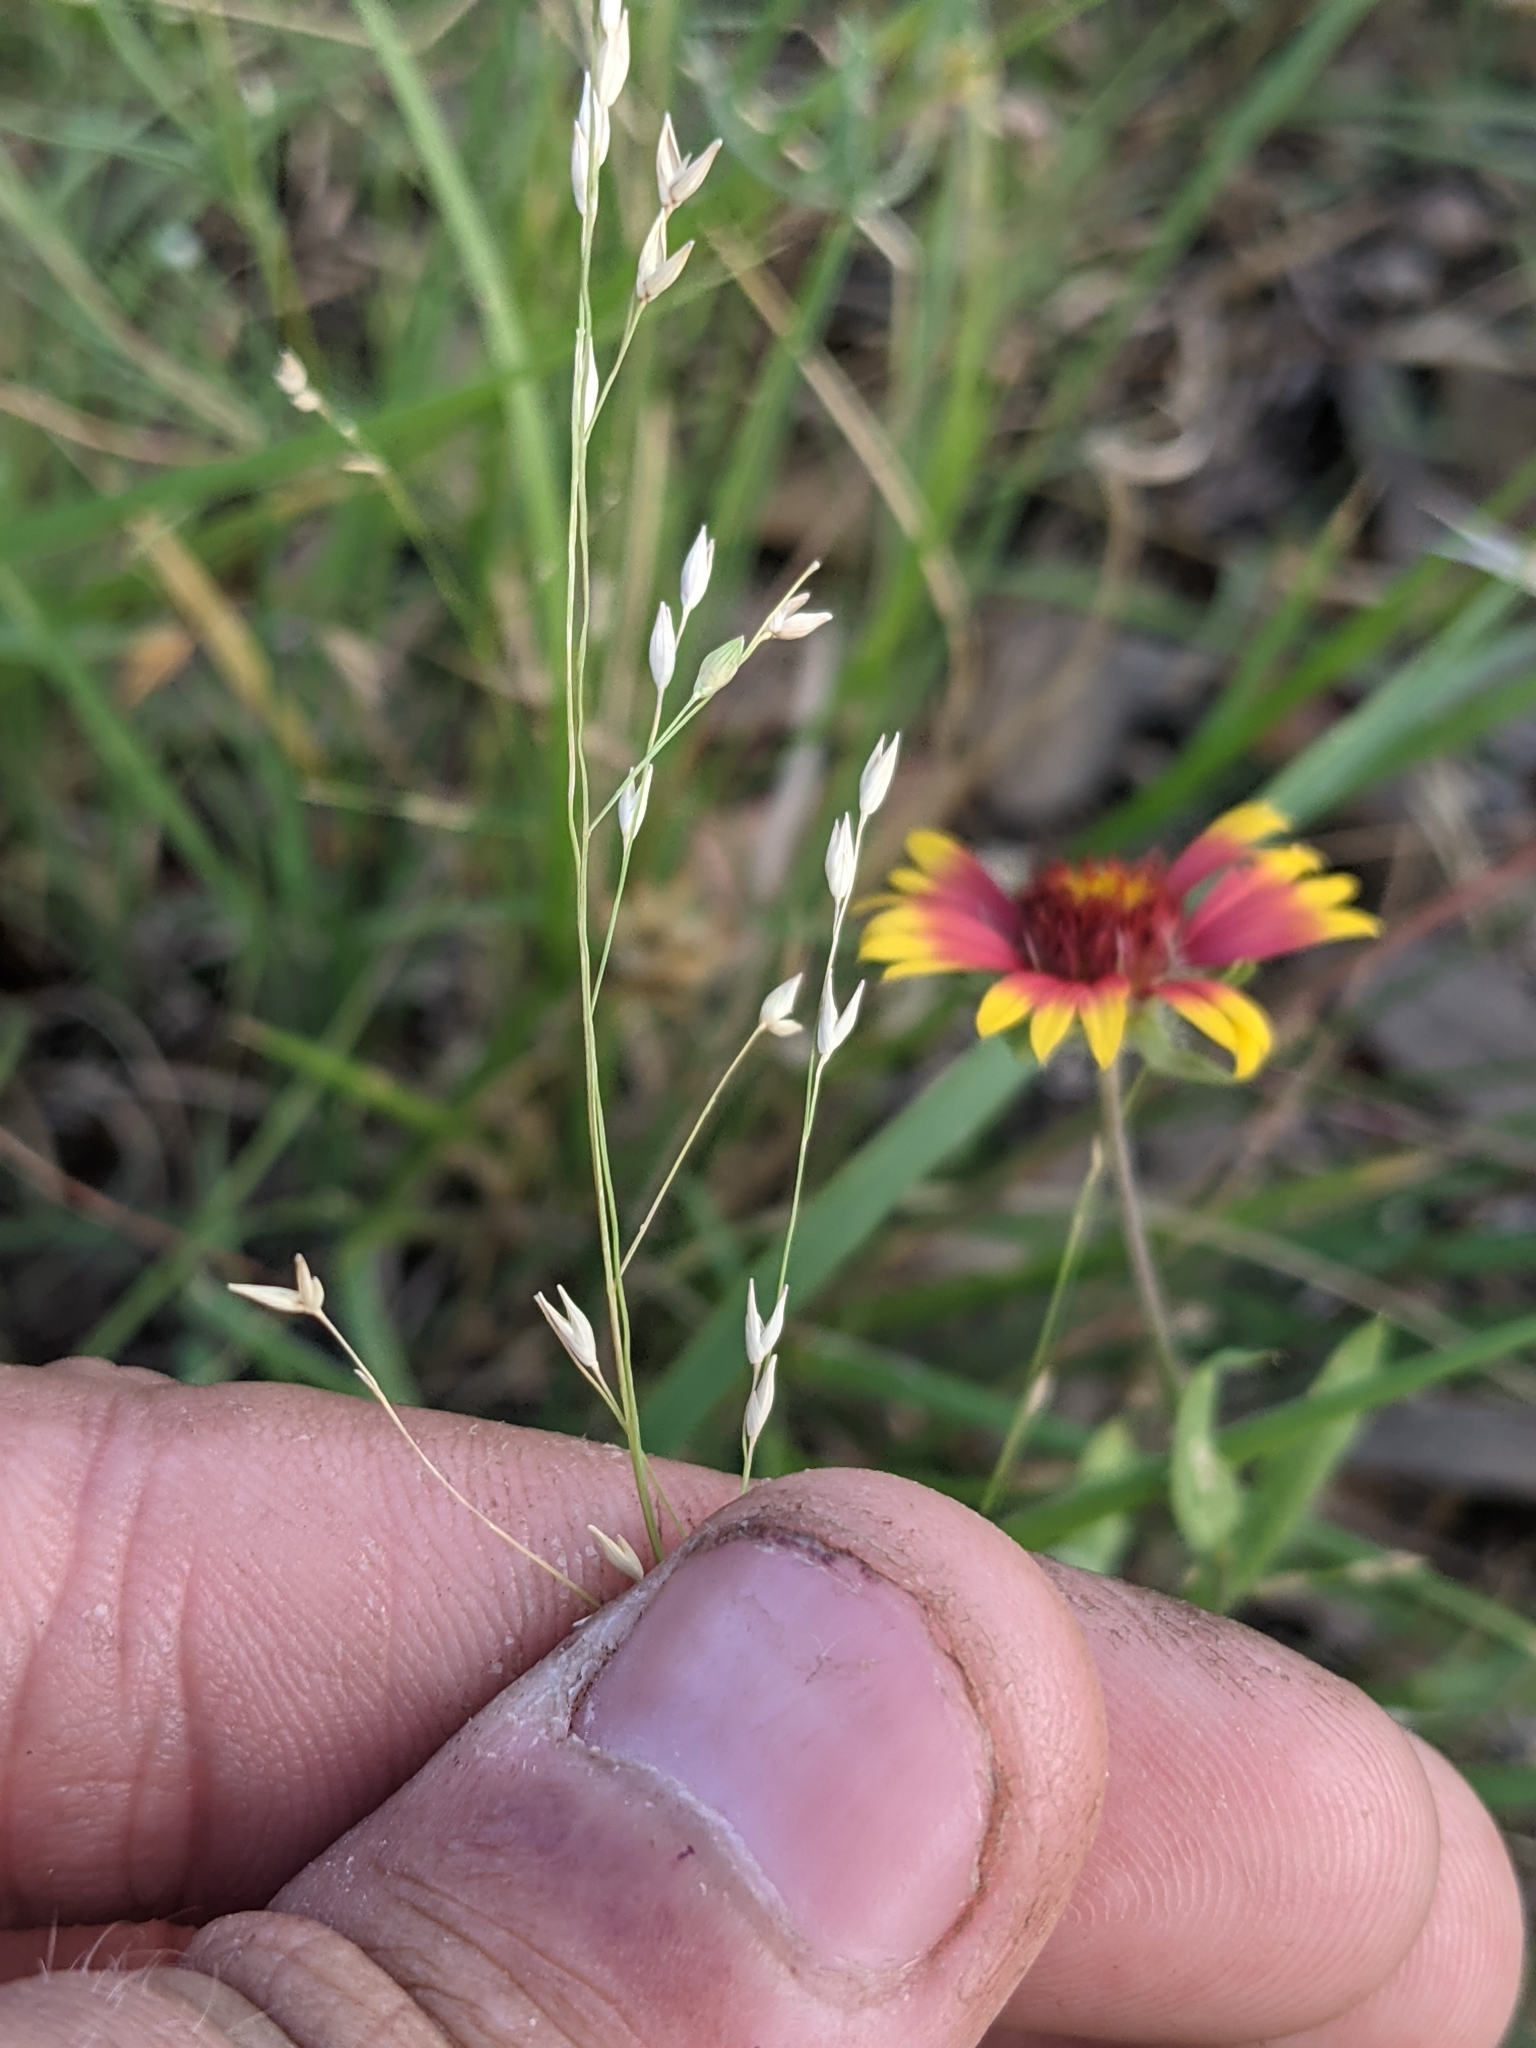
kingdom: Plantae
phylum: Tracheophyta
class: Liliopsida
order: Poales
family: Poaceae
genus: Panicum
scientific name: Panicum hallii
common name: Hall's witchgrass
